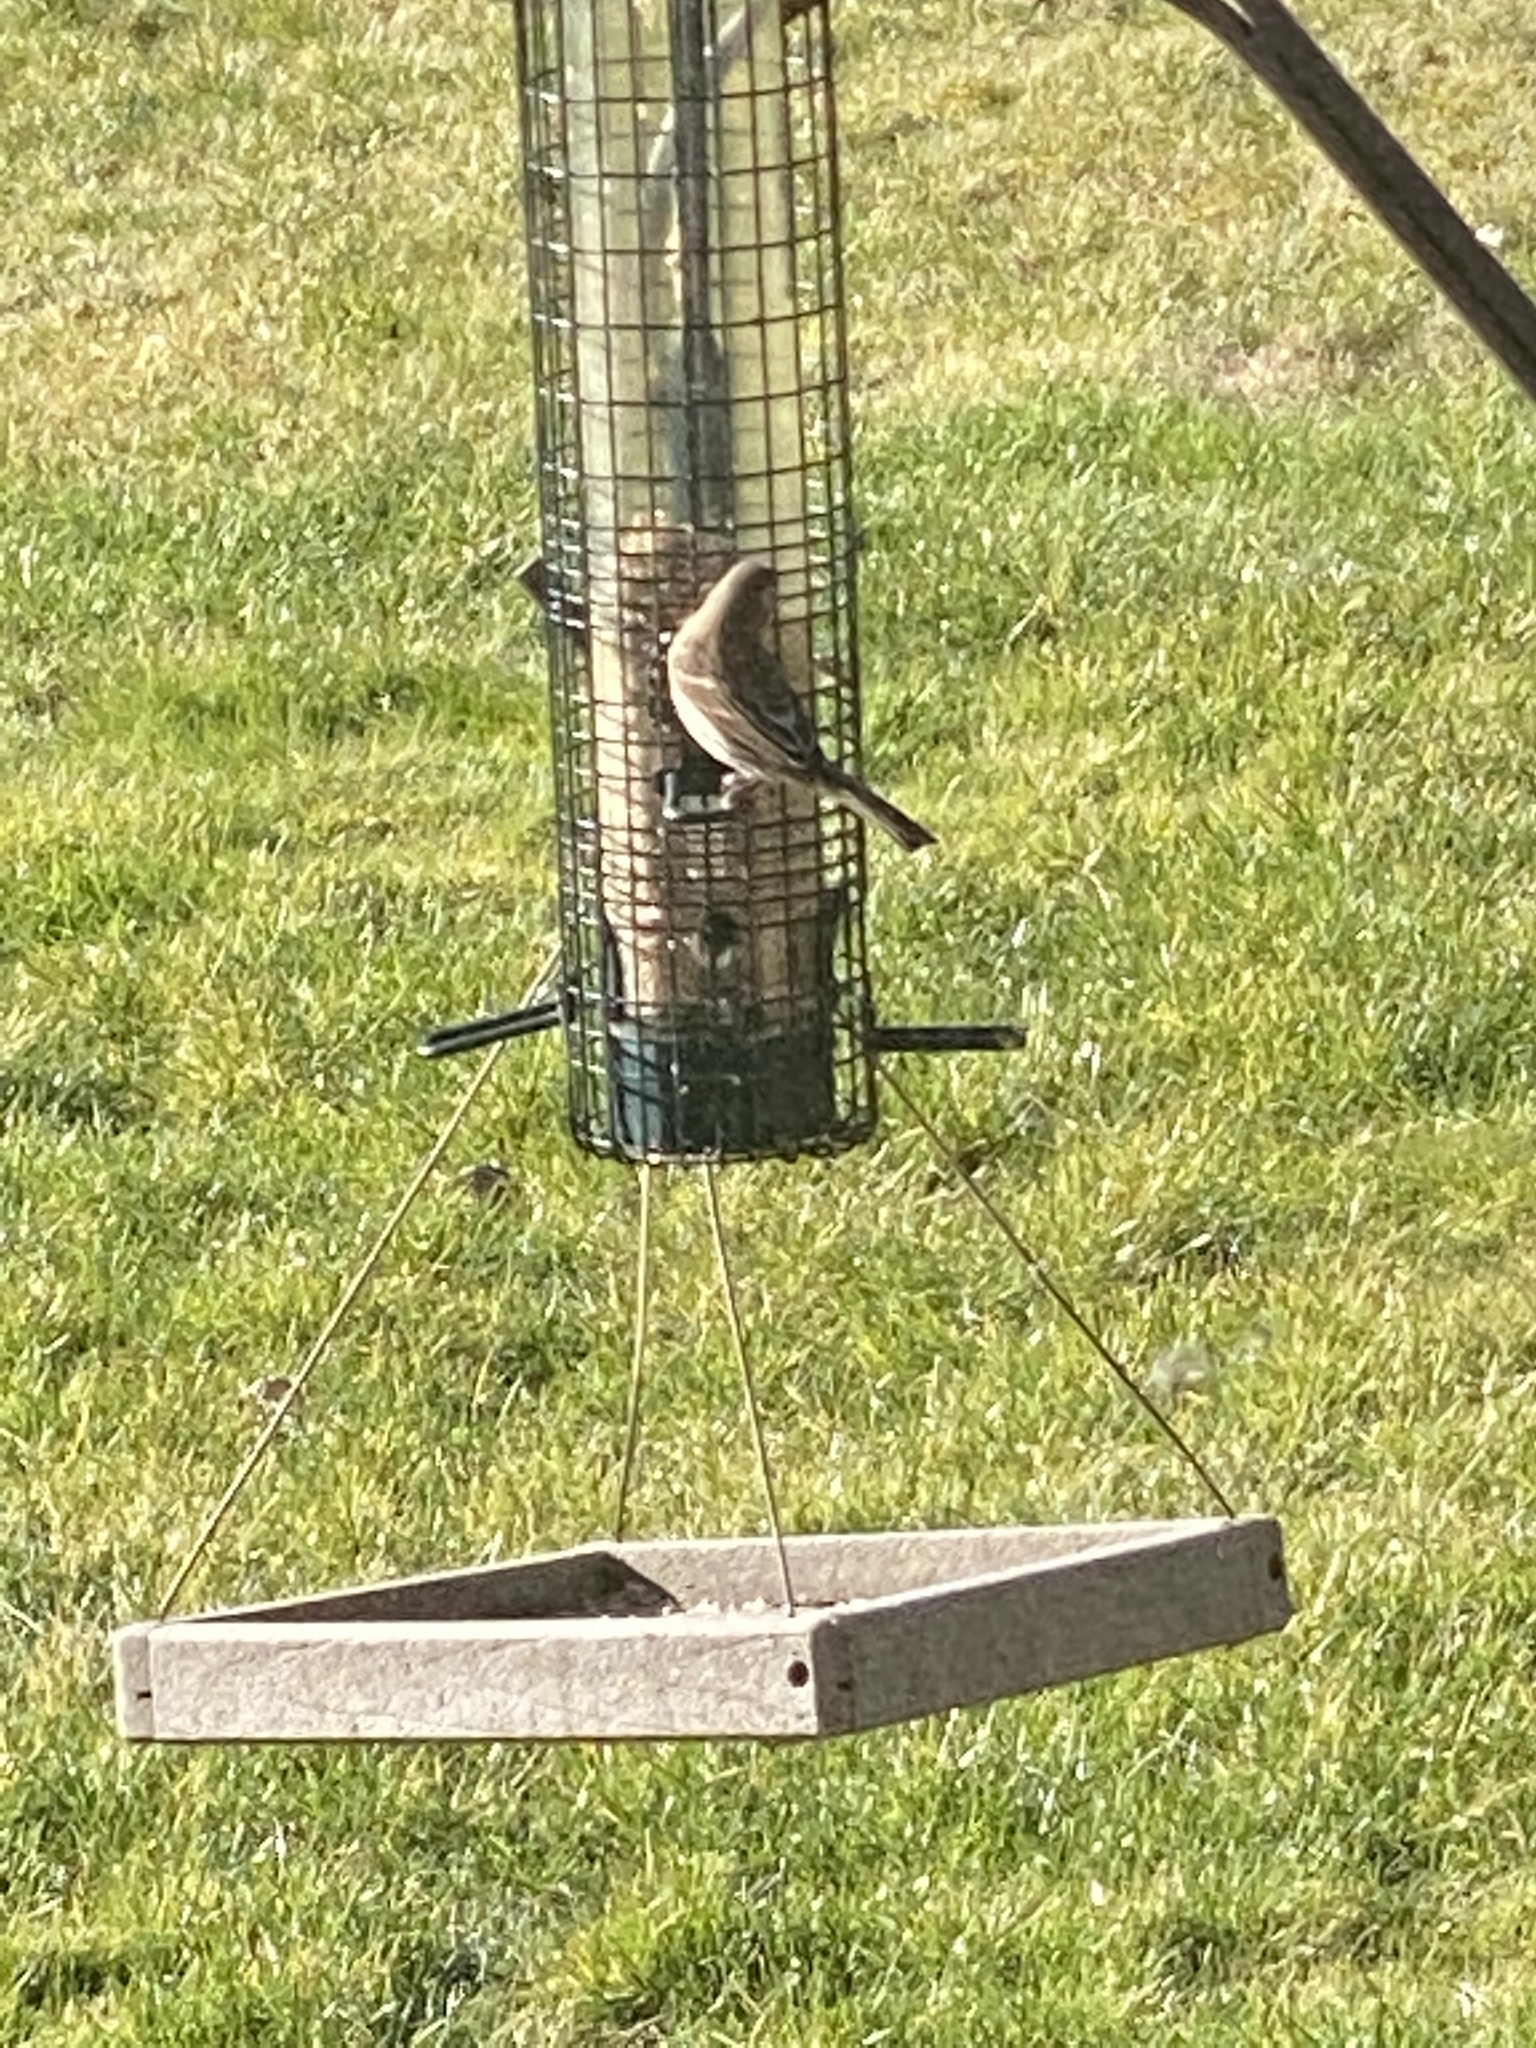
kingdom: Animalia
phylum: Chordata
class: Aves
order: Passeriformes
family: Fringillidae
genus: Haemorhous
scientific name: Haemorhous mexicanus
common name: House finch
